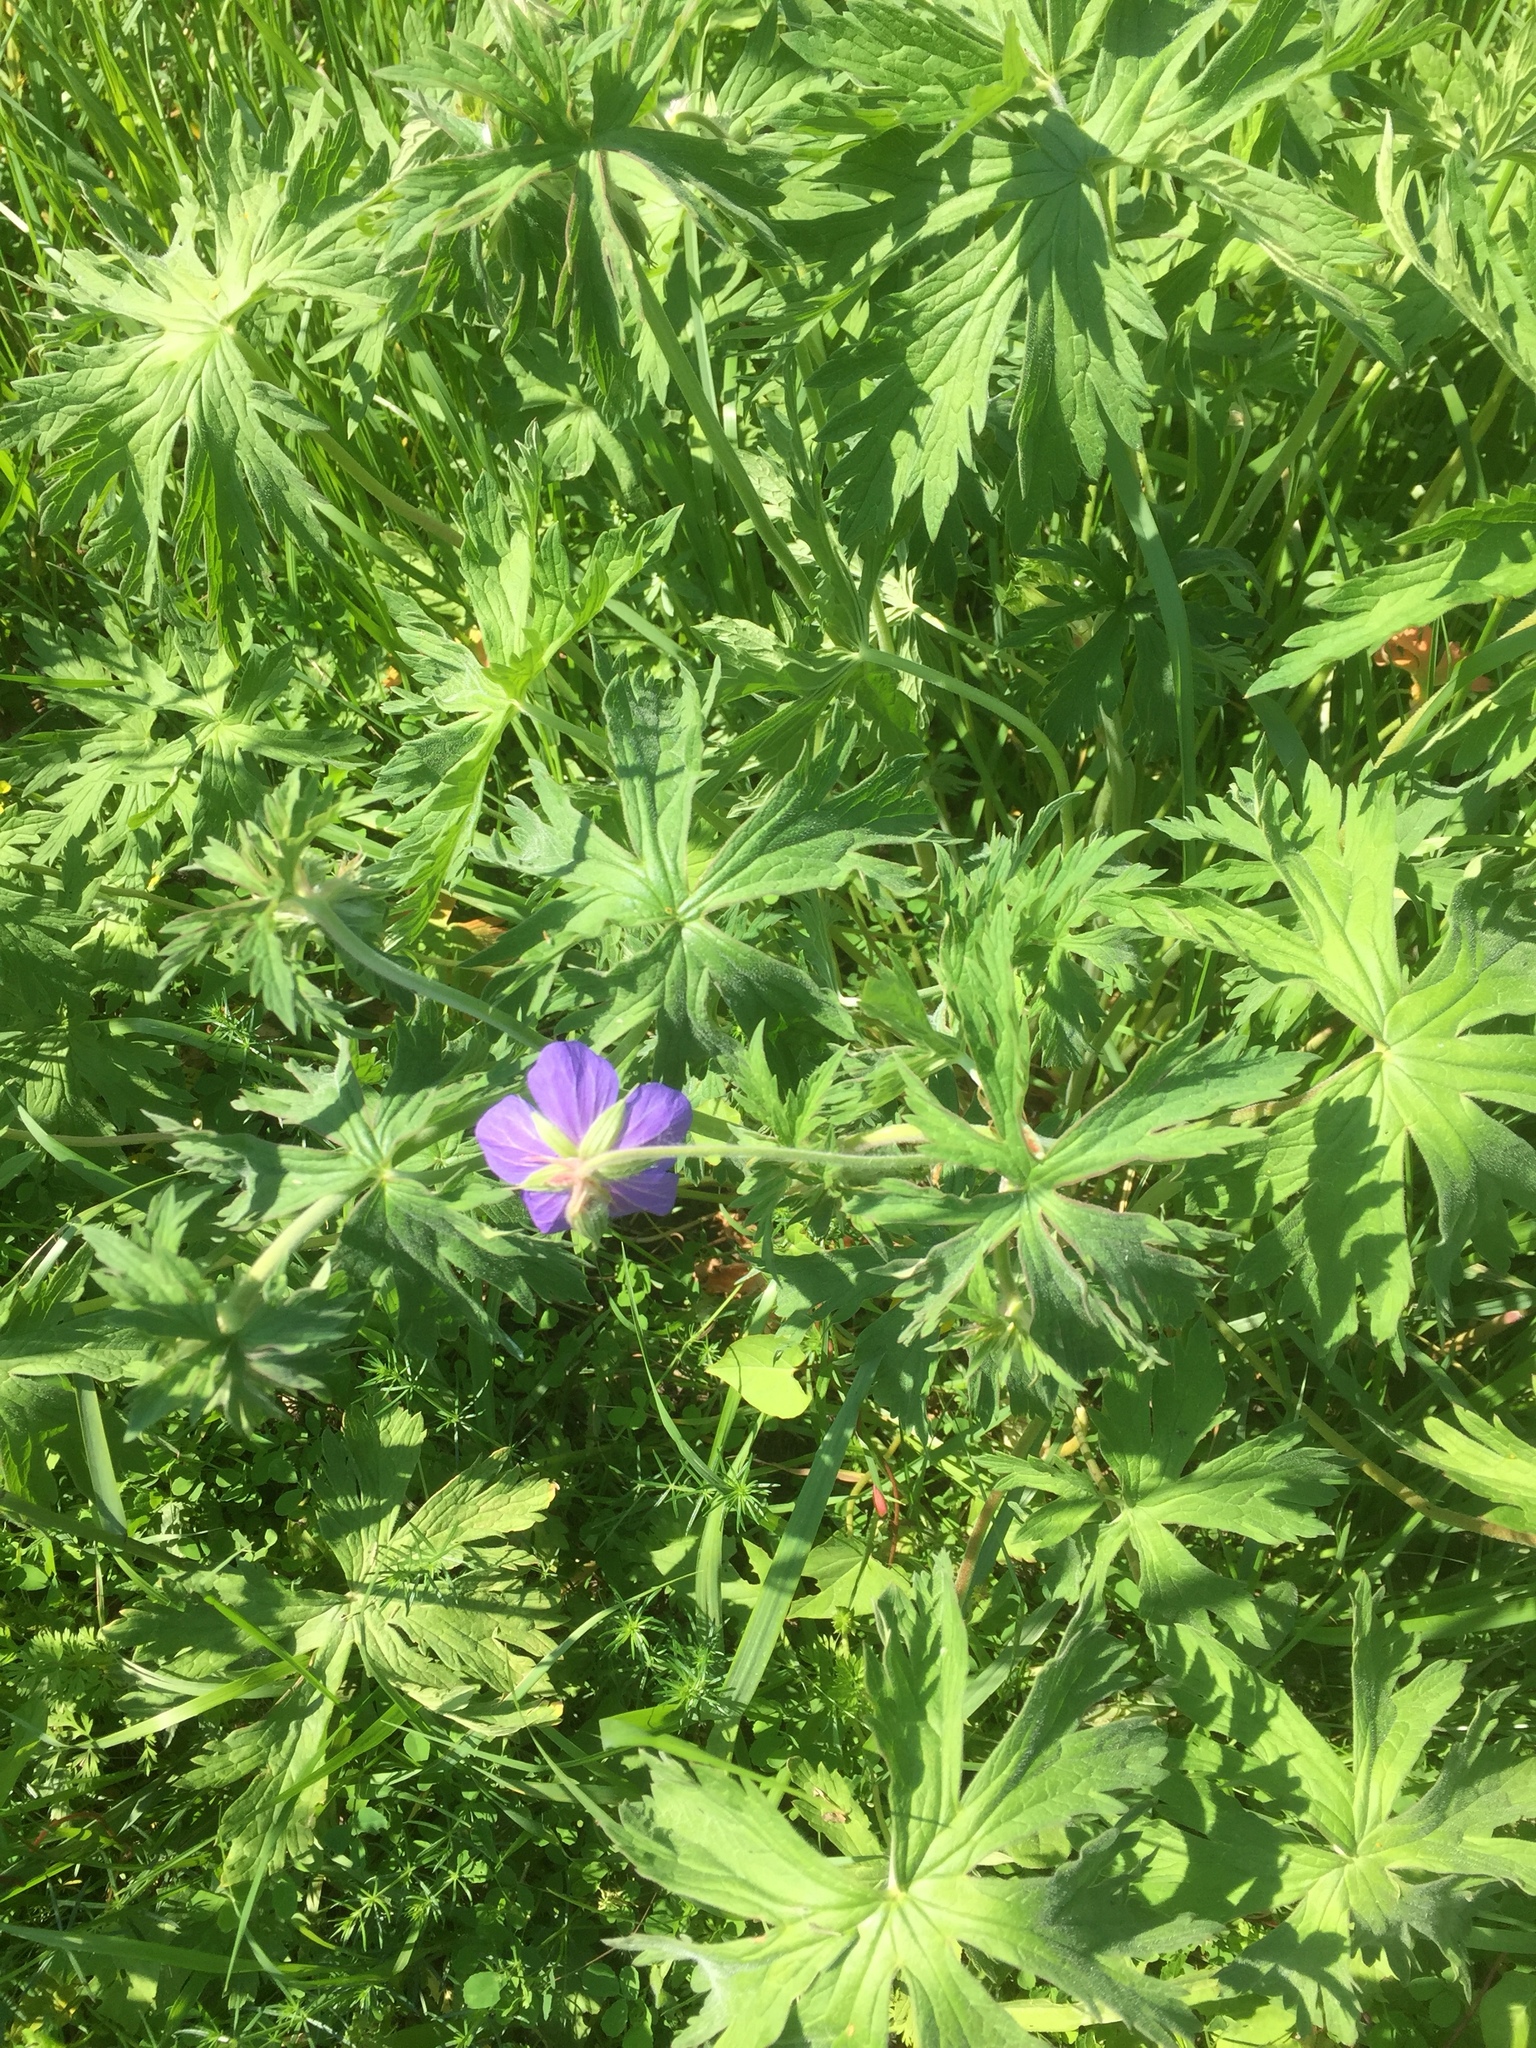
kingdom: Plantae
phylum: Tracheophyta
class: Magnoliopsida
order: Geraniales
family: Geraniaceae
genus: Geranium
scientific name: Geranium pratense
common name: Meadow crane's-bill
